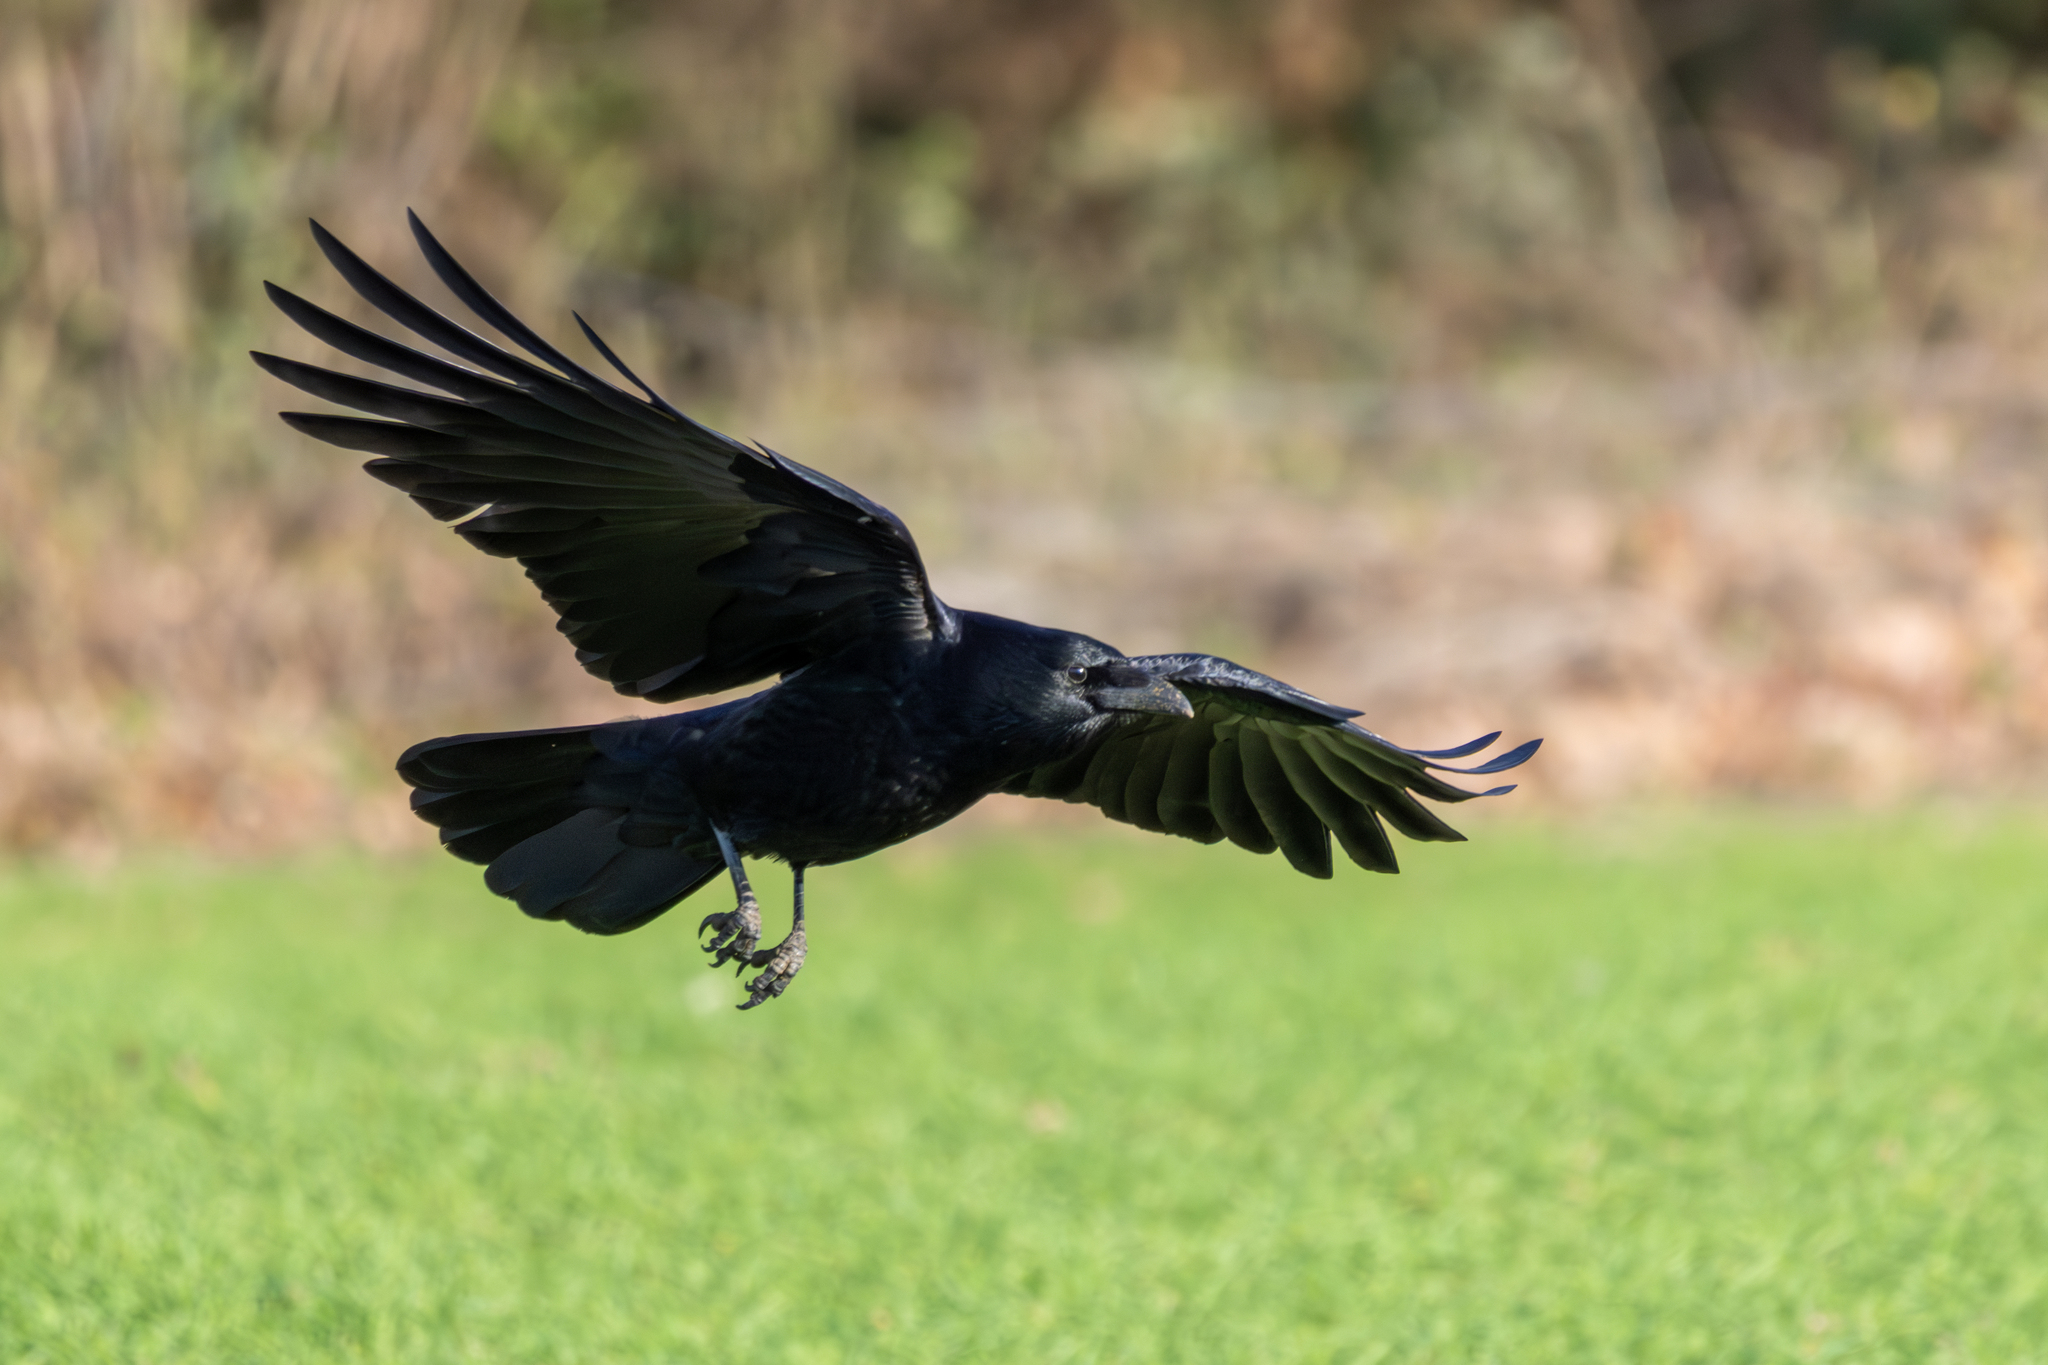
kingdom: Animalia
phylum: Chordata
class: Aves
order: Passeriformes
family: Corvidae
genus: Corvus
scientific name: Corvus corone
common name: Carrion crow
